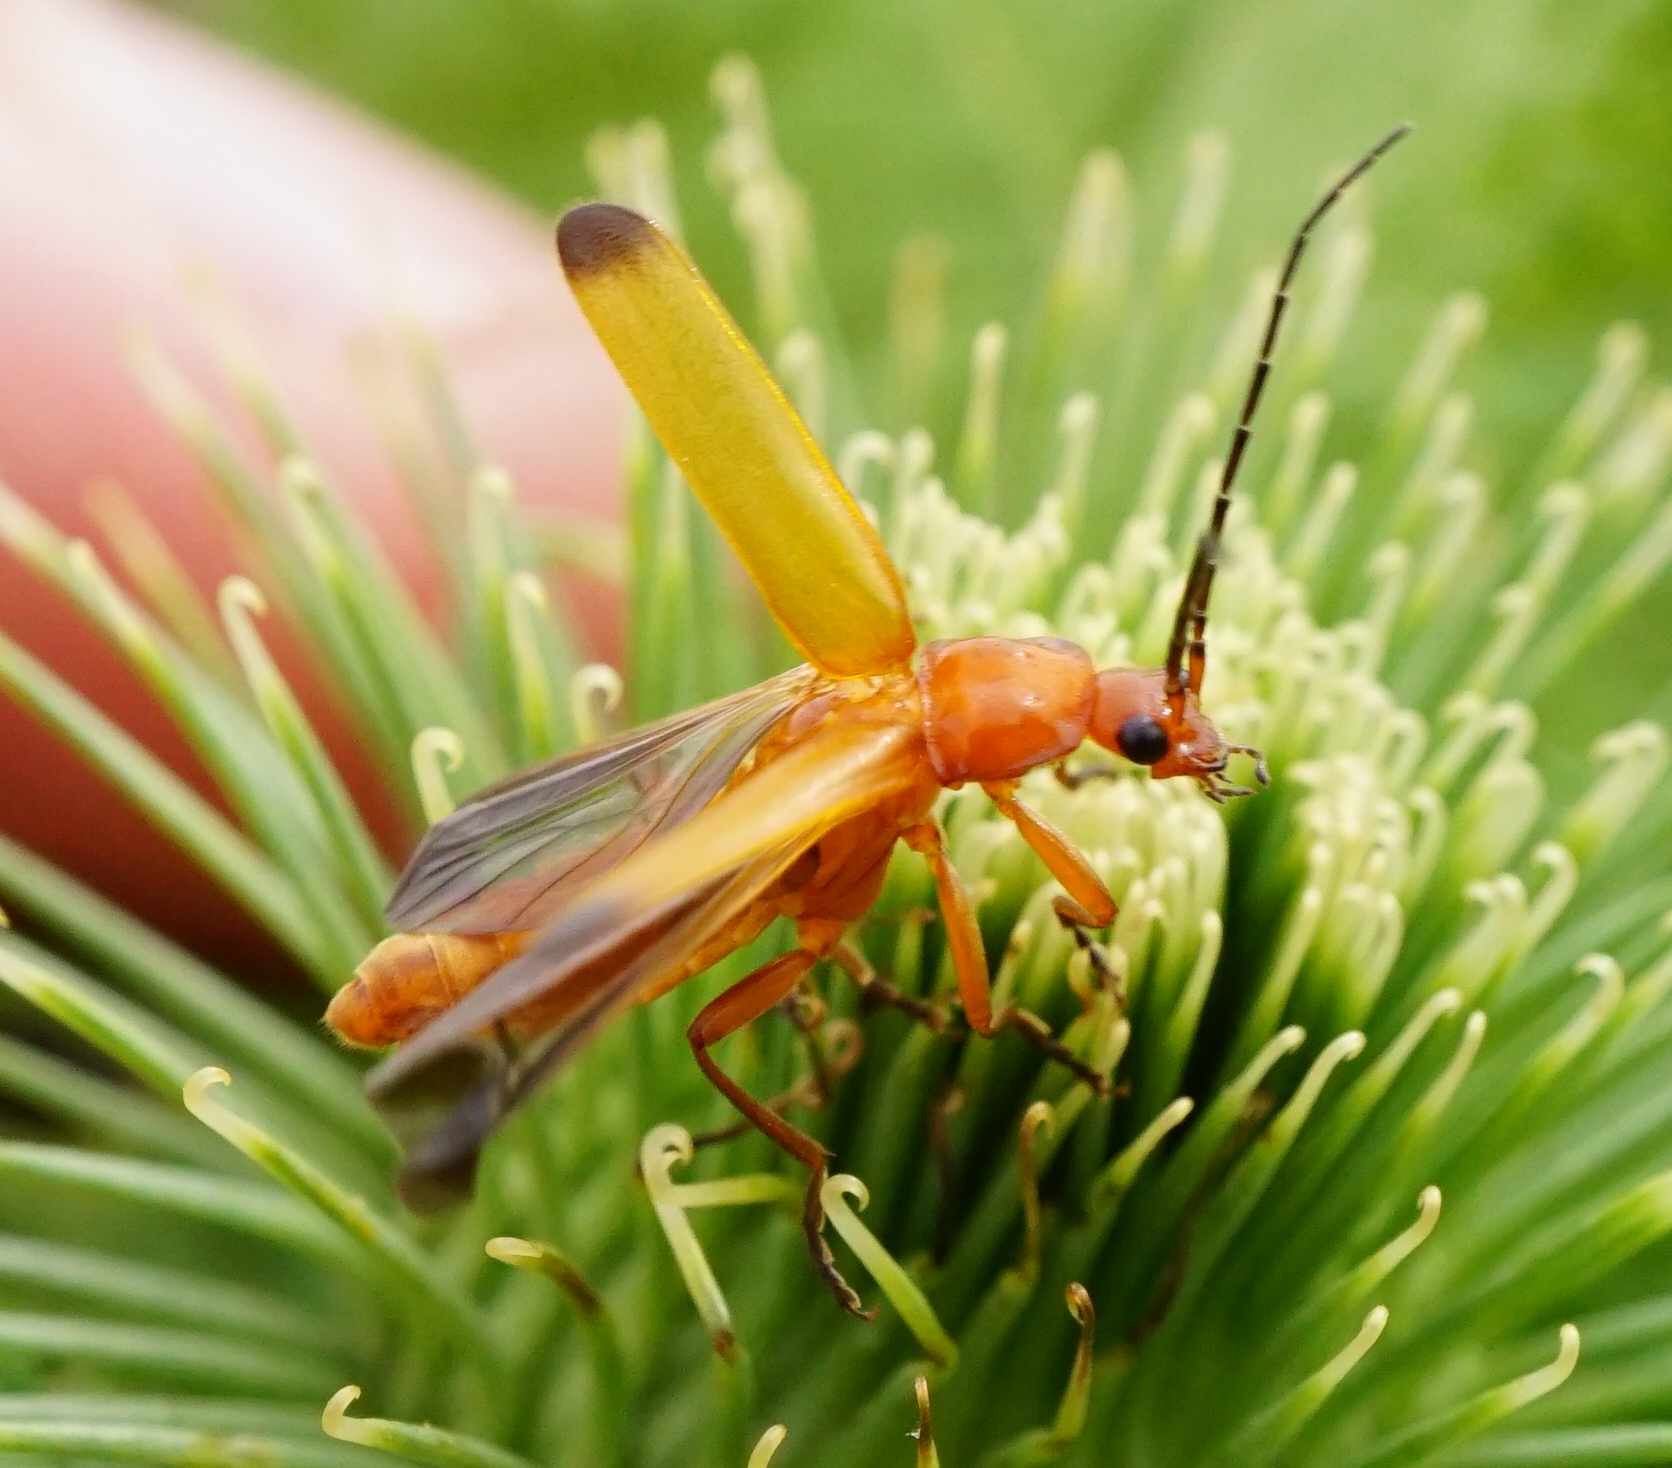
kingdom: Animalia
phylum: Arthropoda
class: Insecta
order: Coleoptera
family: Cantharidae
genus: Rhagonycha
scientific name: Rhagonycha fulva
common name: Common red soldier beetle
